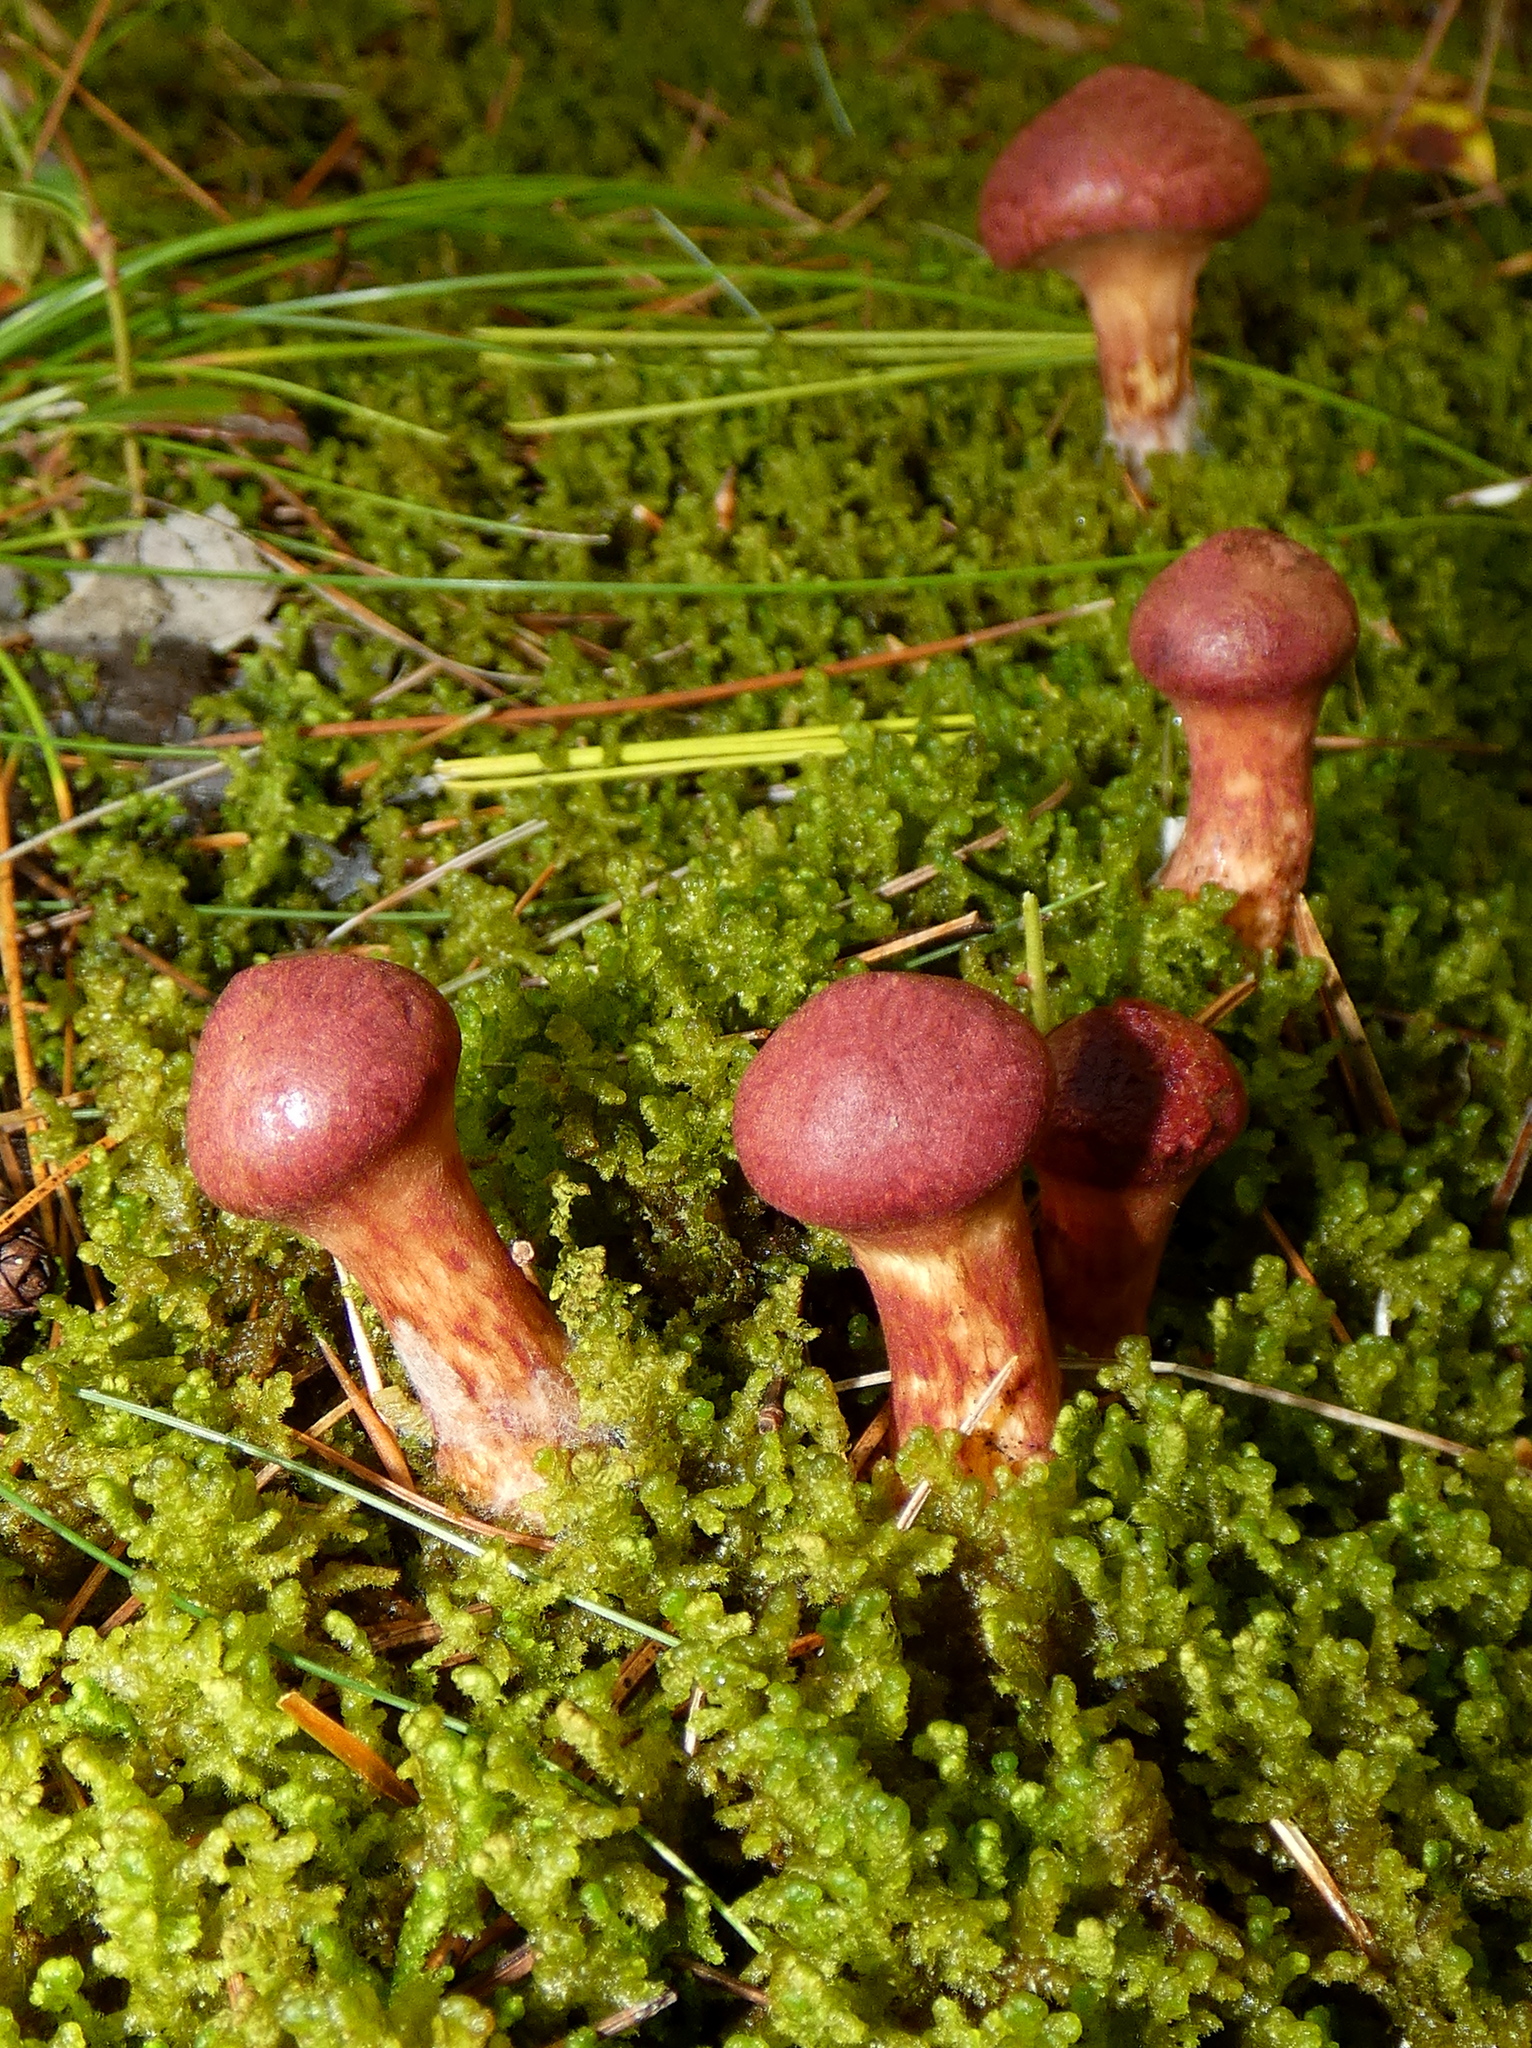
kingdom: Fungi
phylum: Basidiomycota
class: Agaricomycetes
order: Boletales
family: Suillaceae
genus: Suillus
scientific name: Suillus spraguei
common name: Painted suillus
